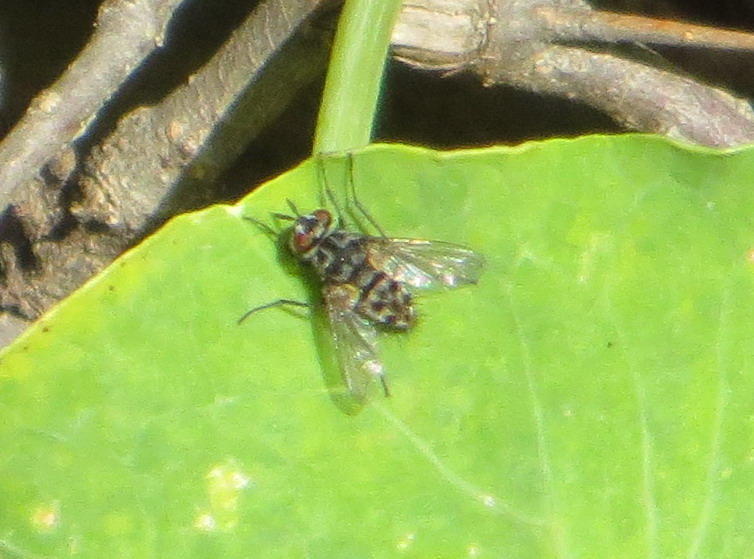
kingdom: Animalia
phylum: Arthropoda
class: Insecta
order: Diptera
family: Tachinidae
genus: Ossidingia
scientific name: Ossidingia
